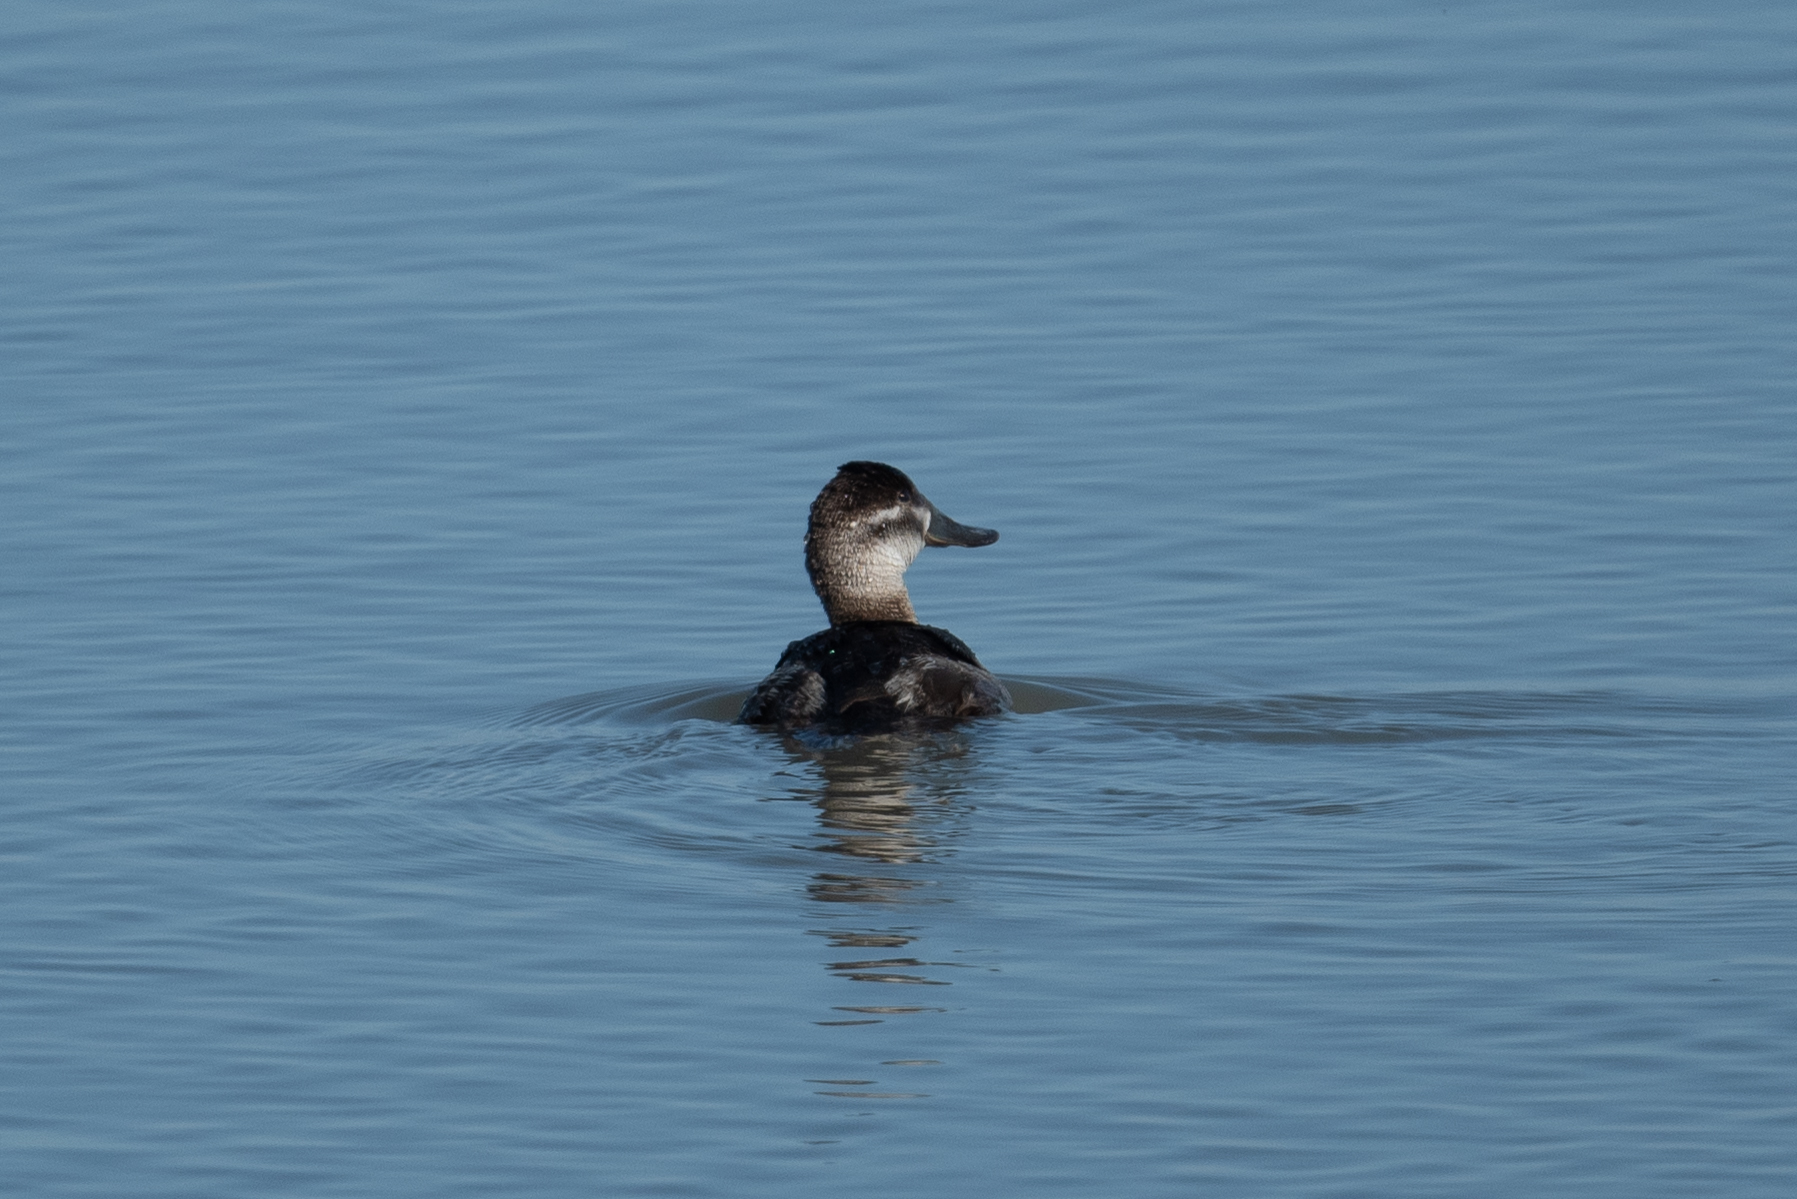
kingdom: Animalia
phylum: Chordata
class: Aves
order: Anseriformes
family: Anatidae
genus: Oxyura
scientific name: Oxyura jamaicensis
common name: Ruddy duck
